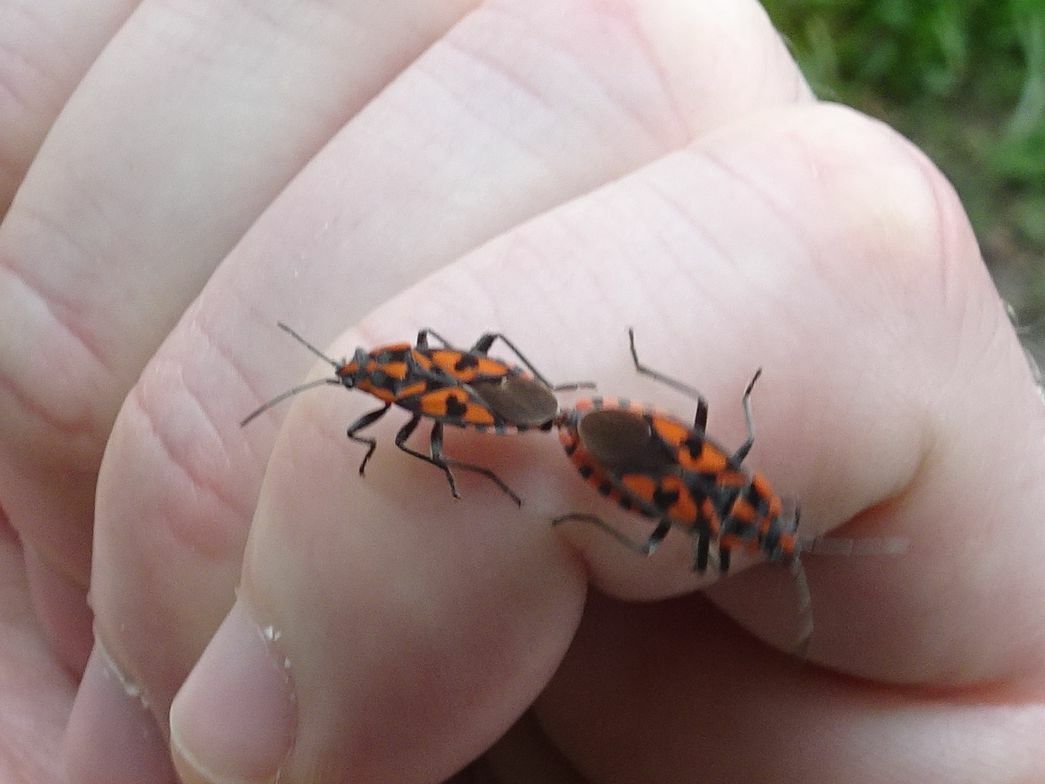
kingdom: Animalia
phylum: Arthropoda
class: Insecta
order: Hemiptera
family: Lygaeidae
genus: Spilostethus
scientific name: Spilostethus saxatilis
